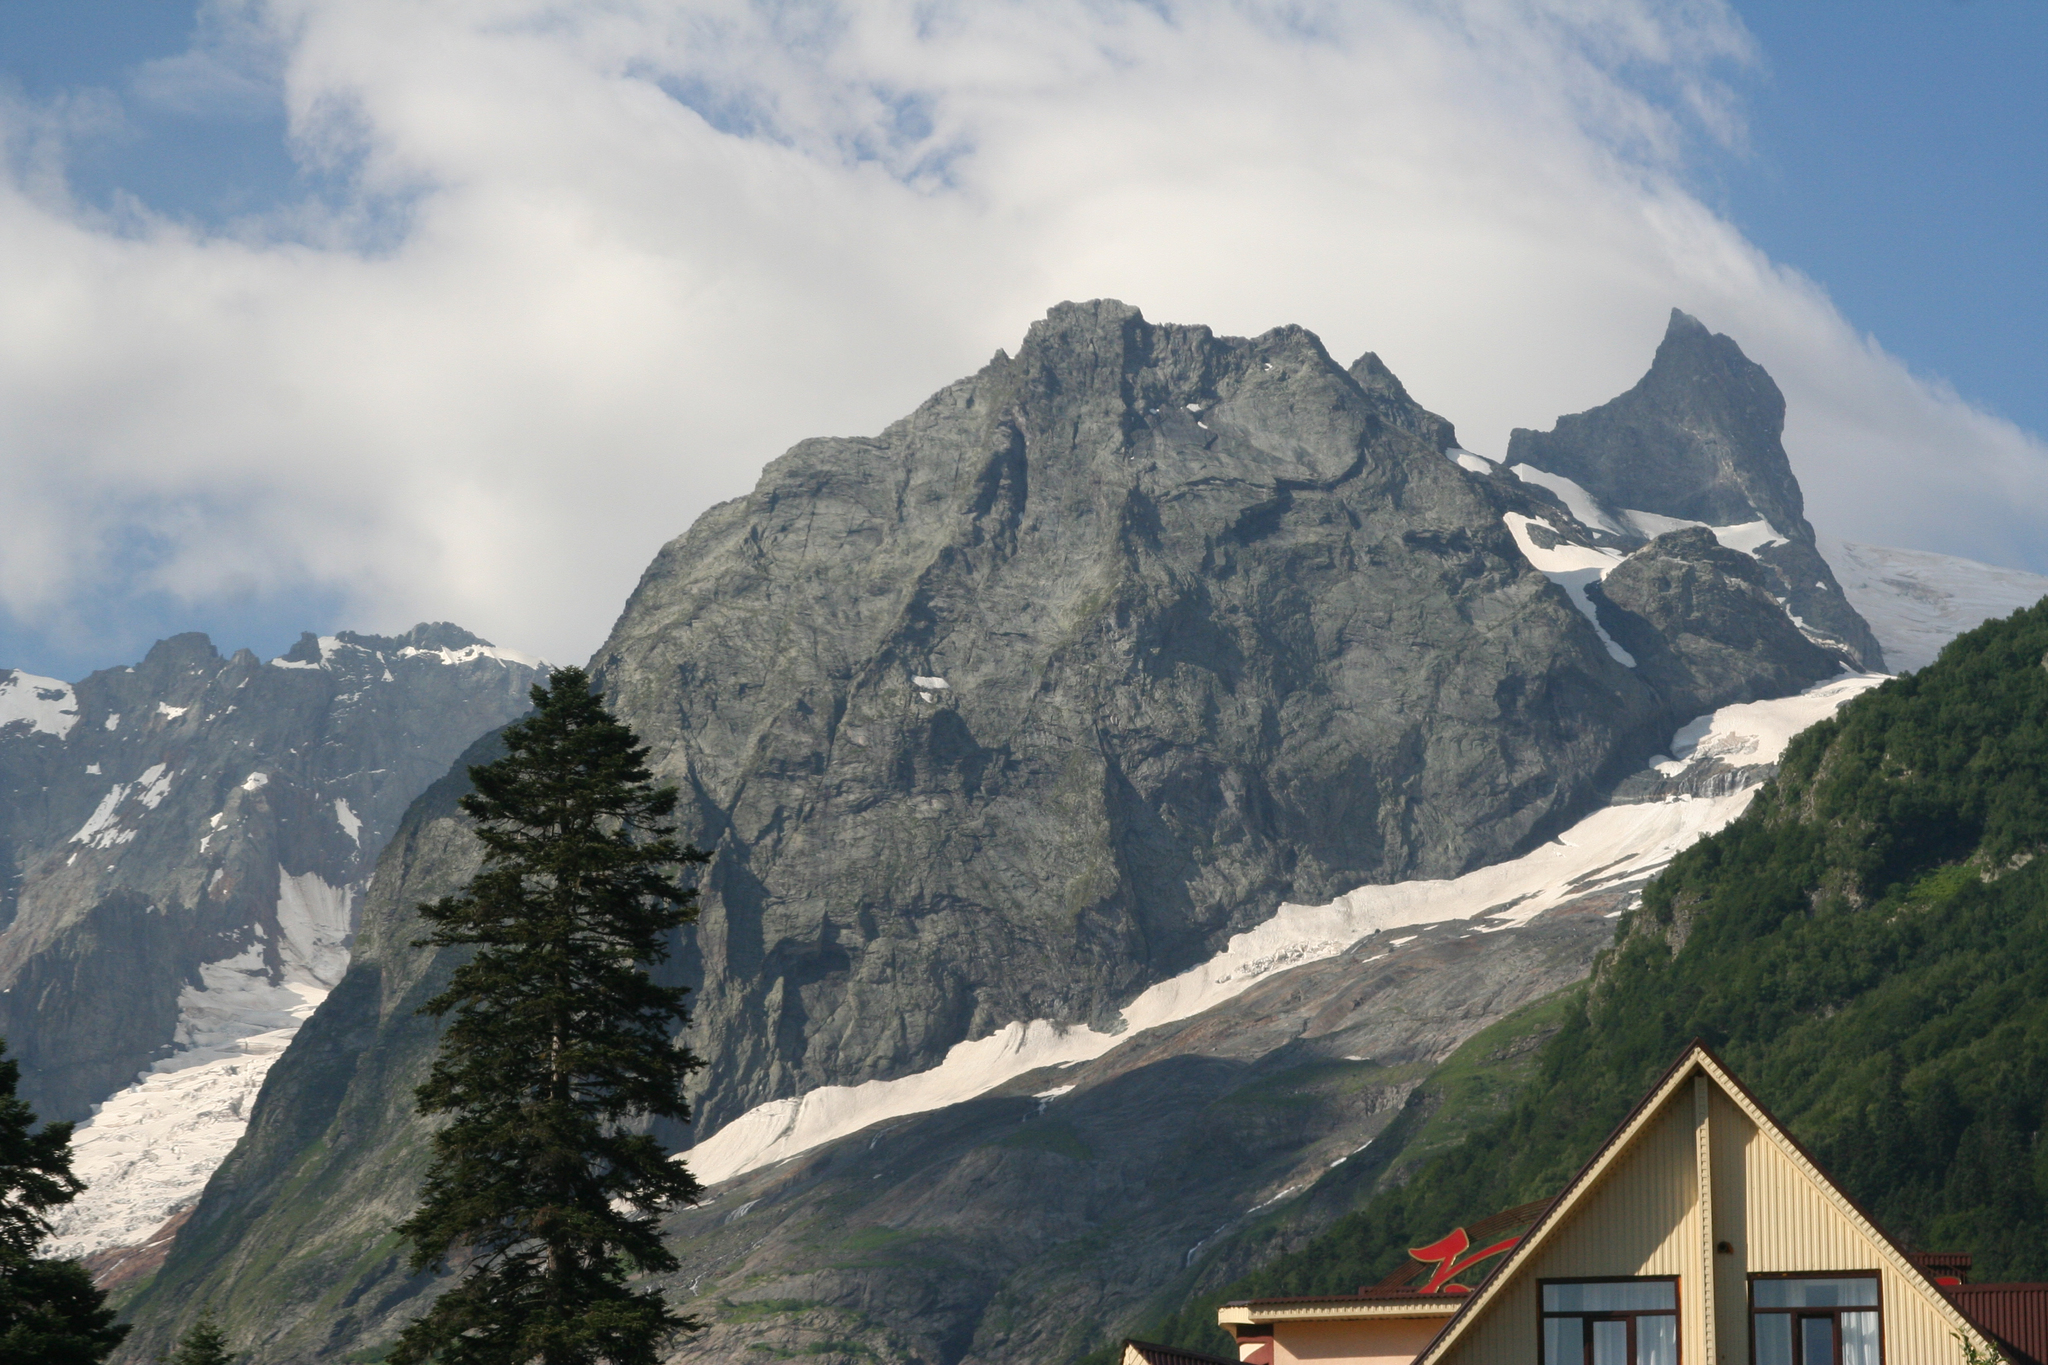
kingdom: Plantae
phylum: Tracheophyta
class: Pinopsida
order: Pinales
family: Pinaceae
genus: Abies
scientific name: Abies nordmanniana
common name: Caucasian fir
